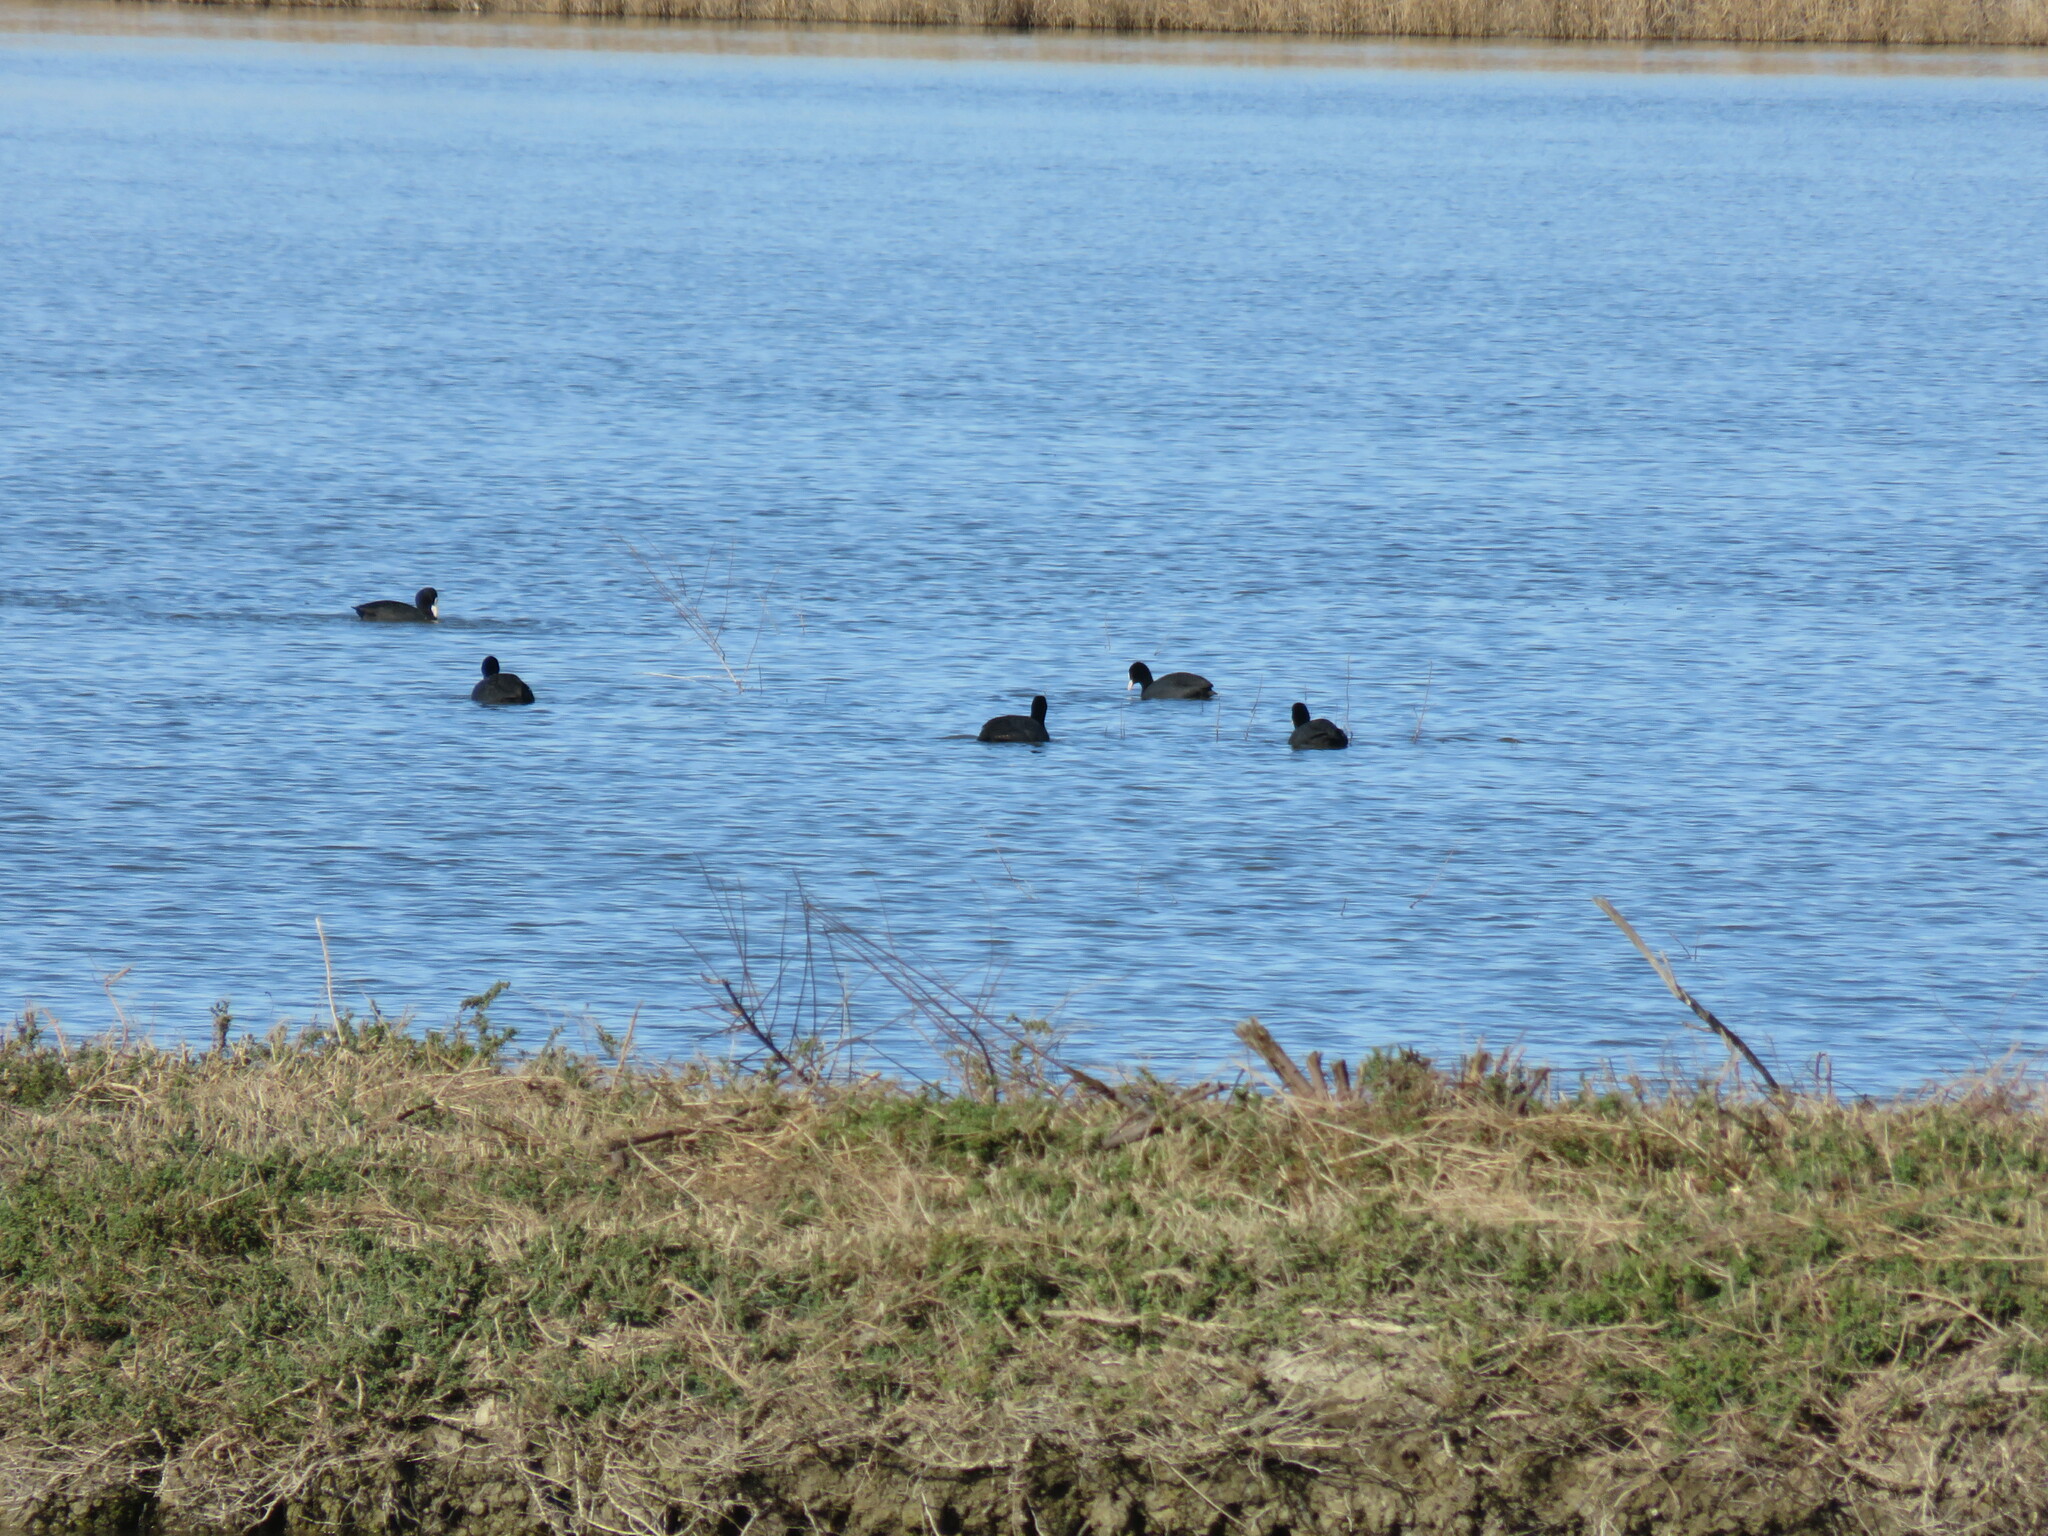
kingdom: Animalia
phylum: Chordata
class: Aves
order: Gruiformes
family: Rallidae
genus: Fulica
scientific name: Fulica atra
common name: Eurasian coot
